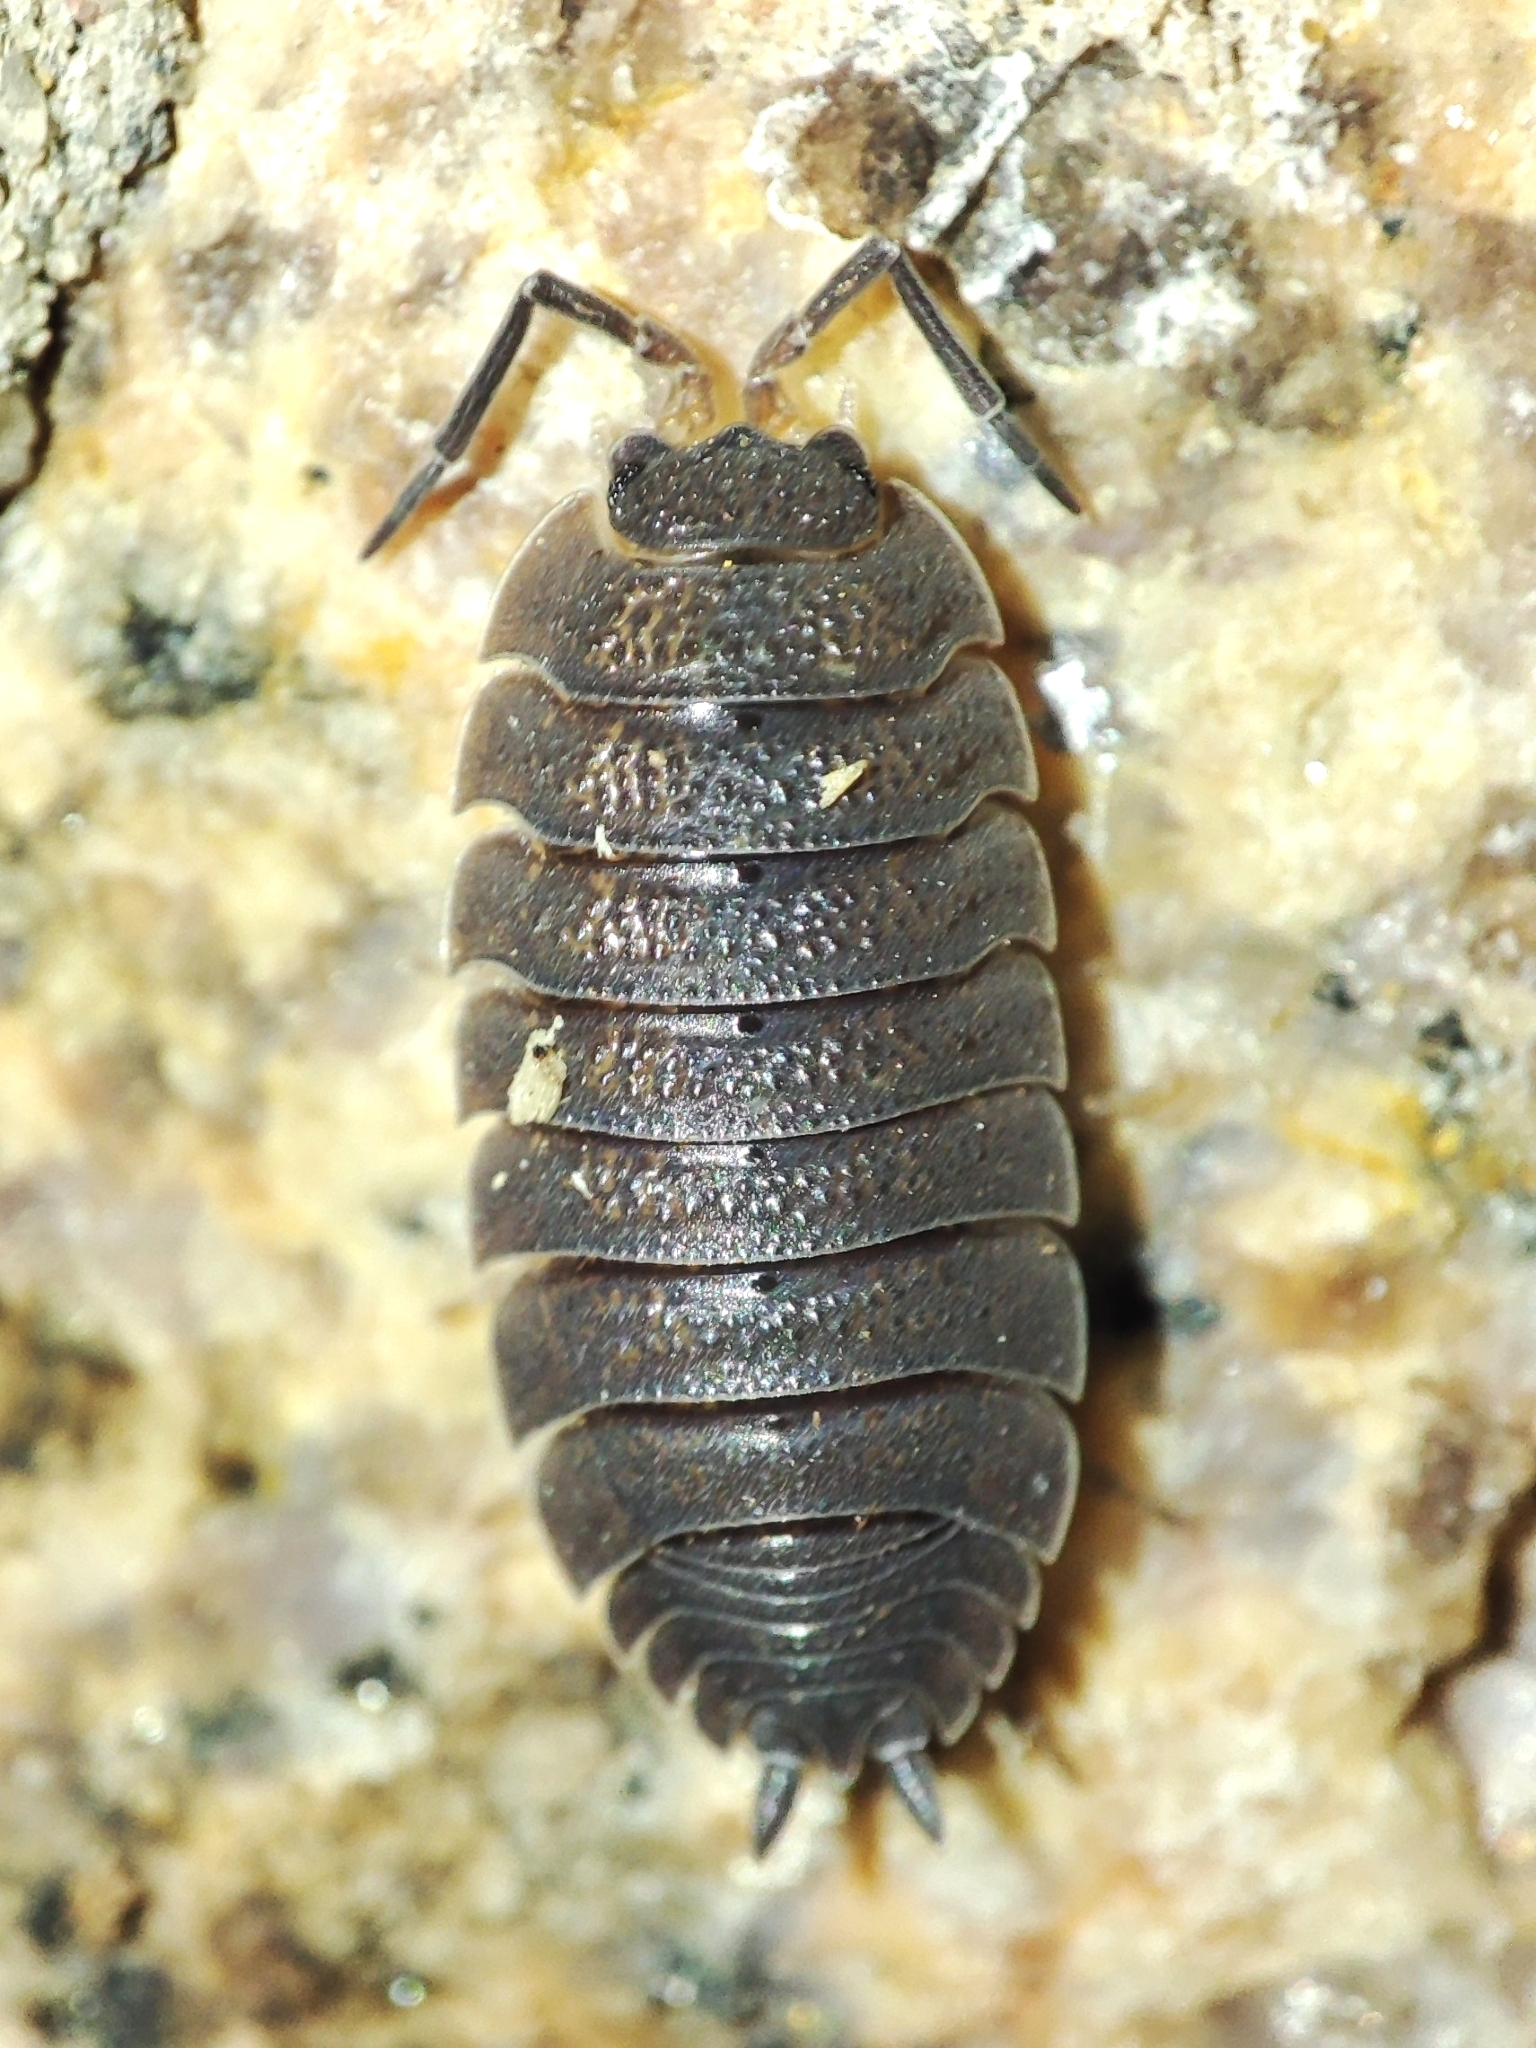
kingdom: Animalia
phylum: Arthropoda
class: Malacostraca
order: Isopoda
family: Porcellionidae
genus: Porcellio
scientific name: Porcellio scaber
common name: Common rough woodlouse
